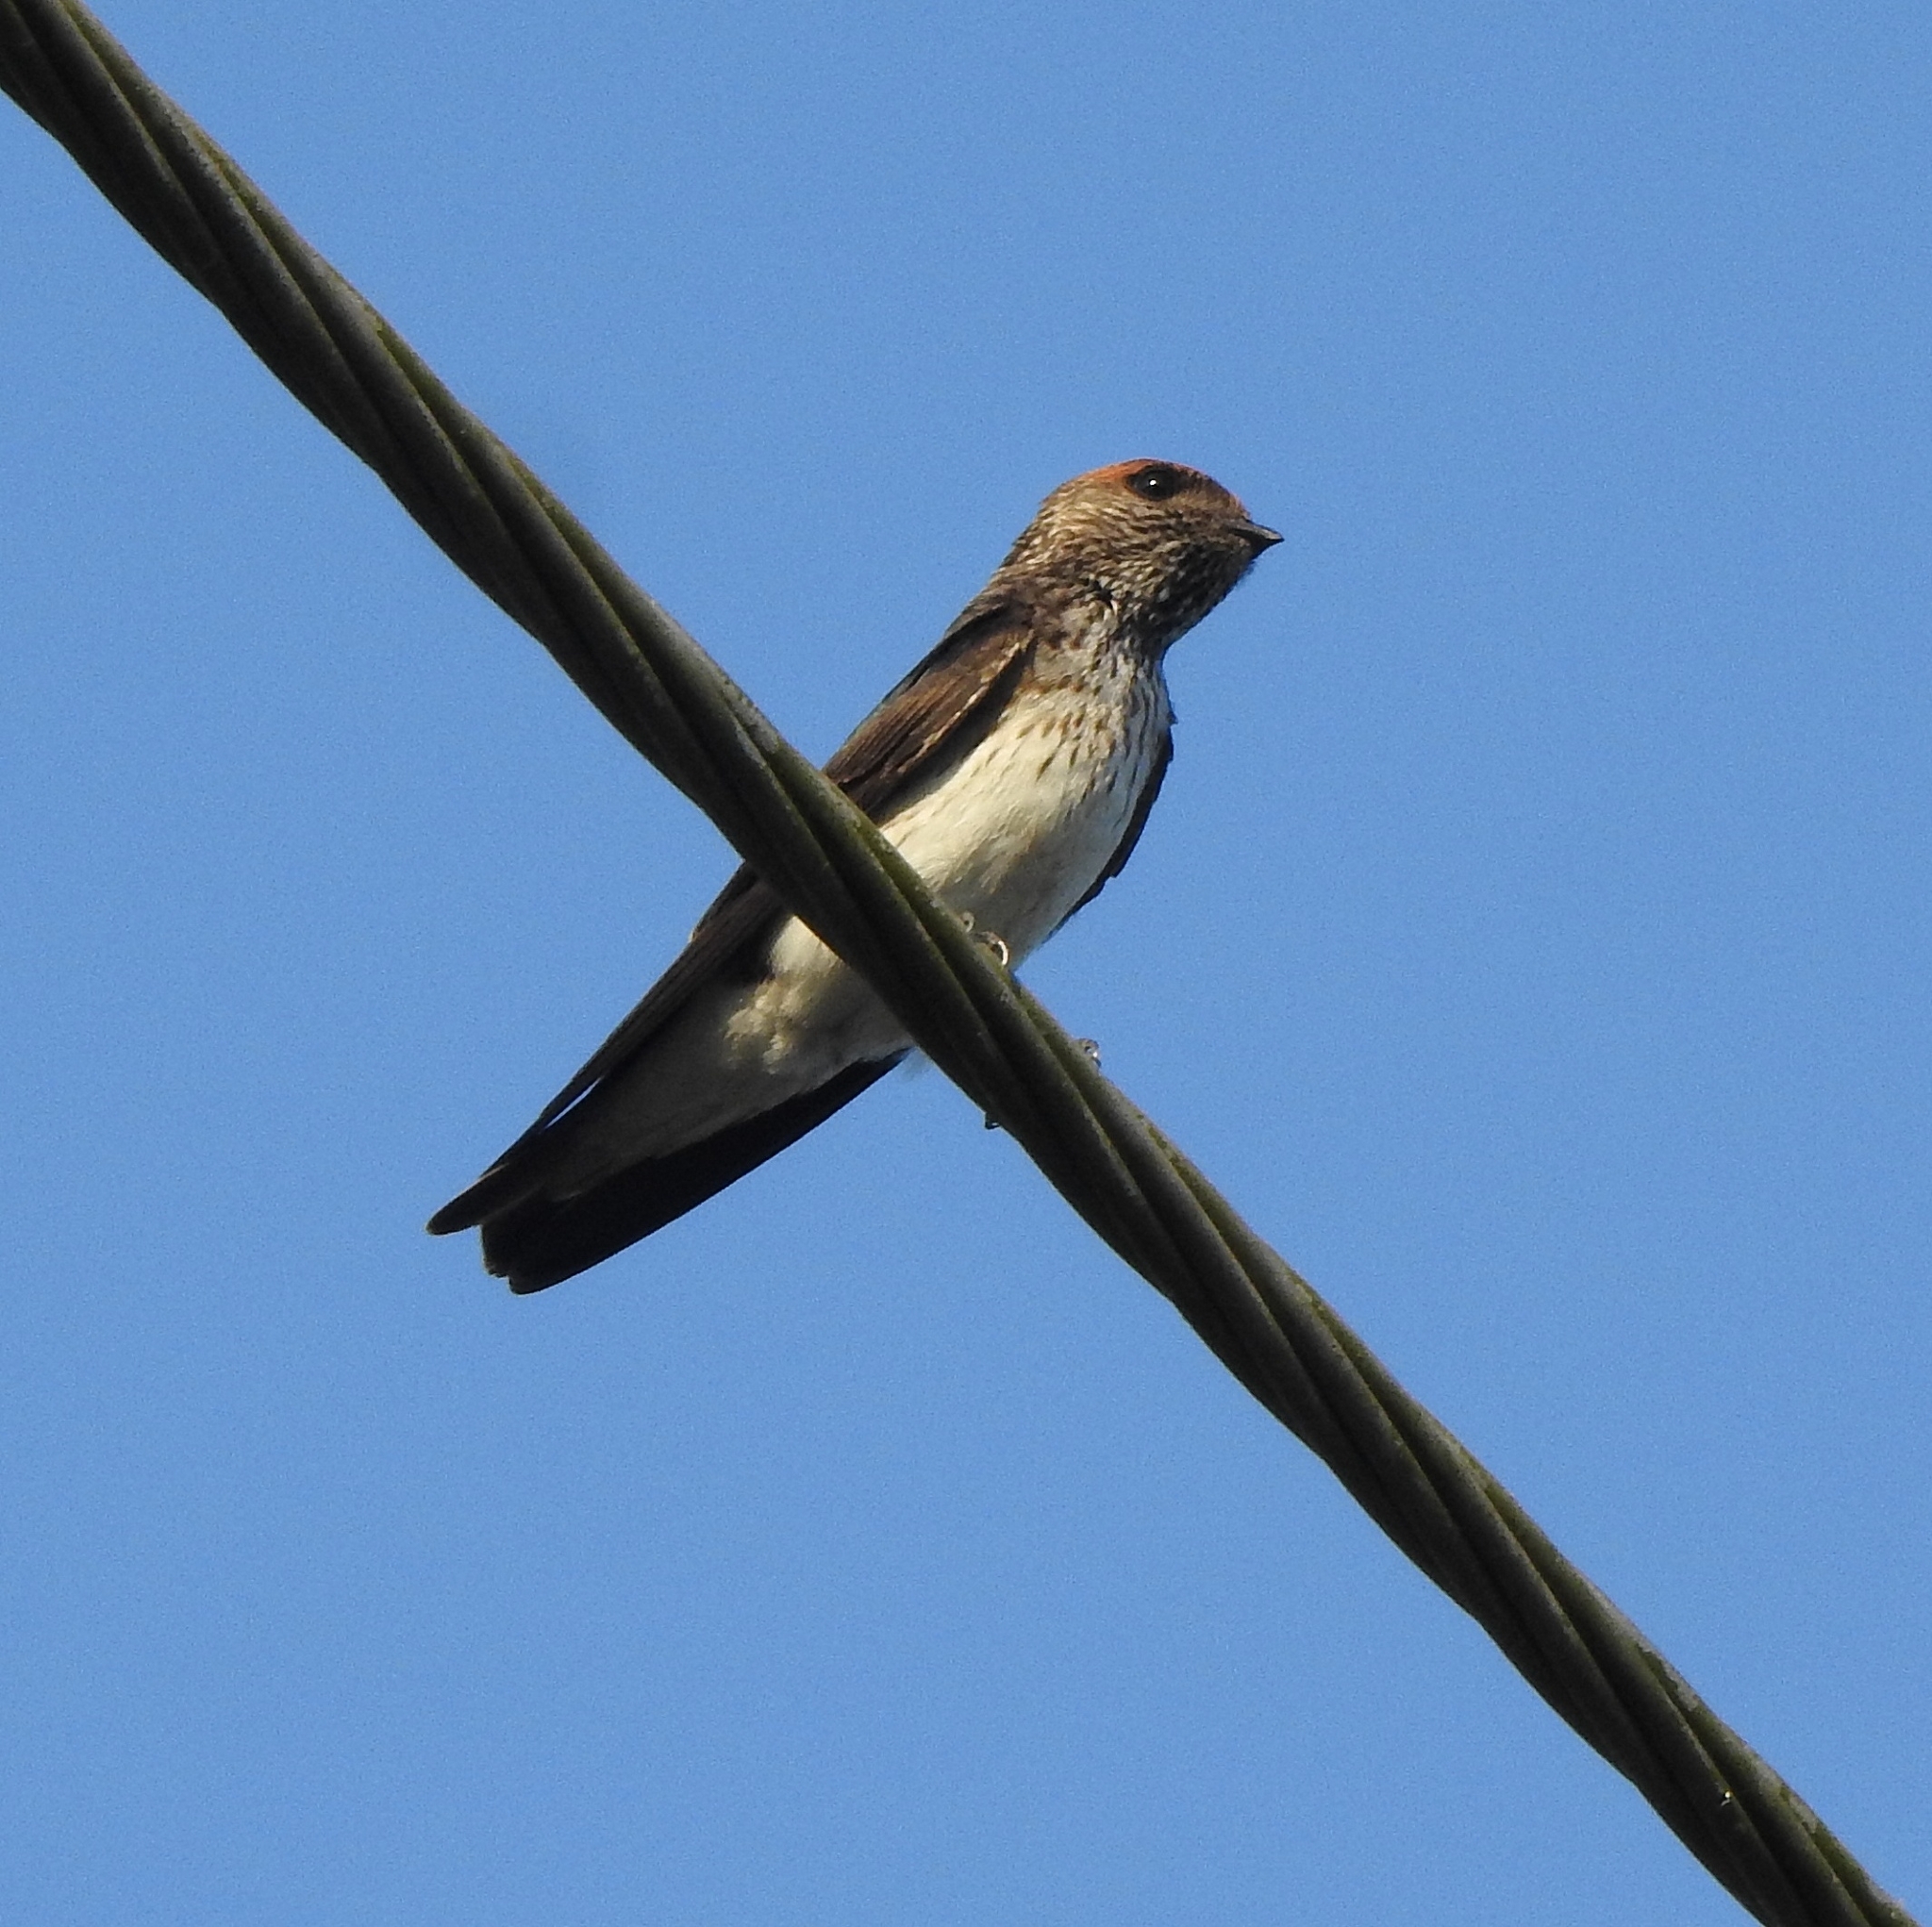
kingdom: Animalia
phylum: Chordata
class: Aves
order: Passeriformes
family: Hirundinidae
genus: Petrochelidon
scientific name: Petrochelidon fluvicola
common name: Streak-throated swallow
